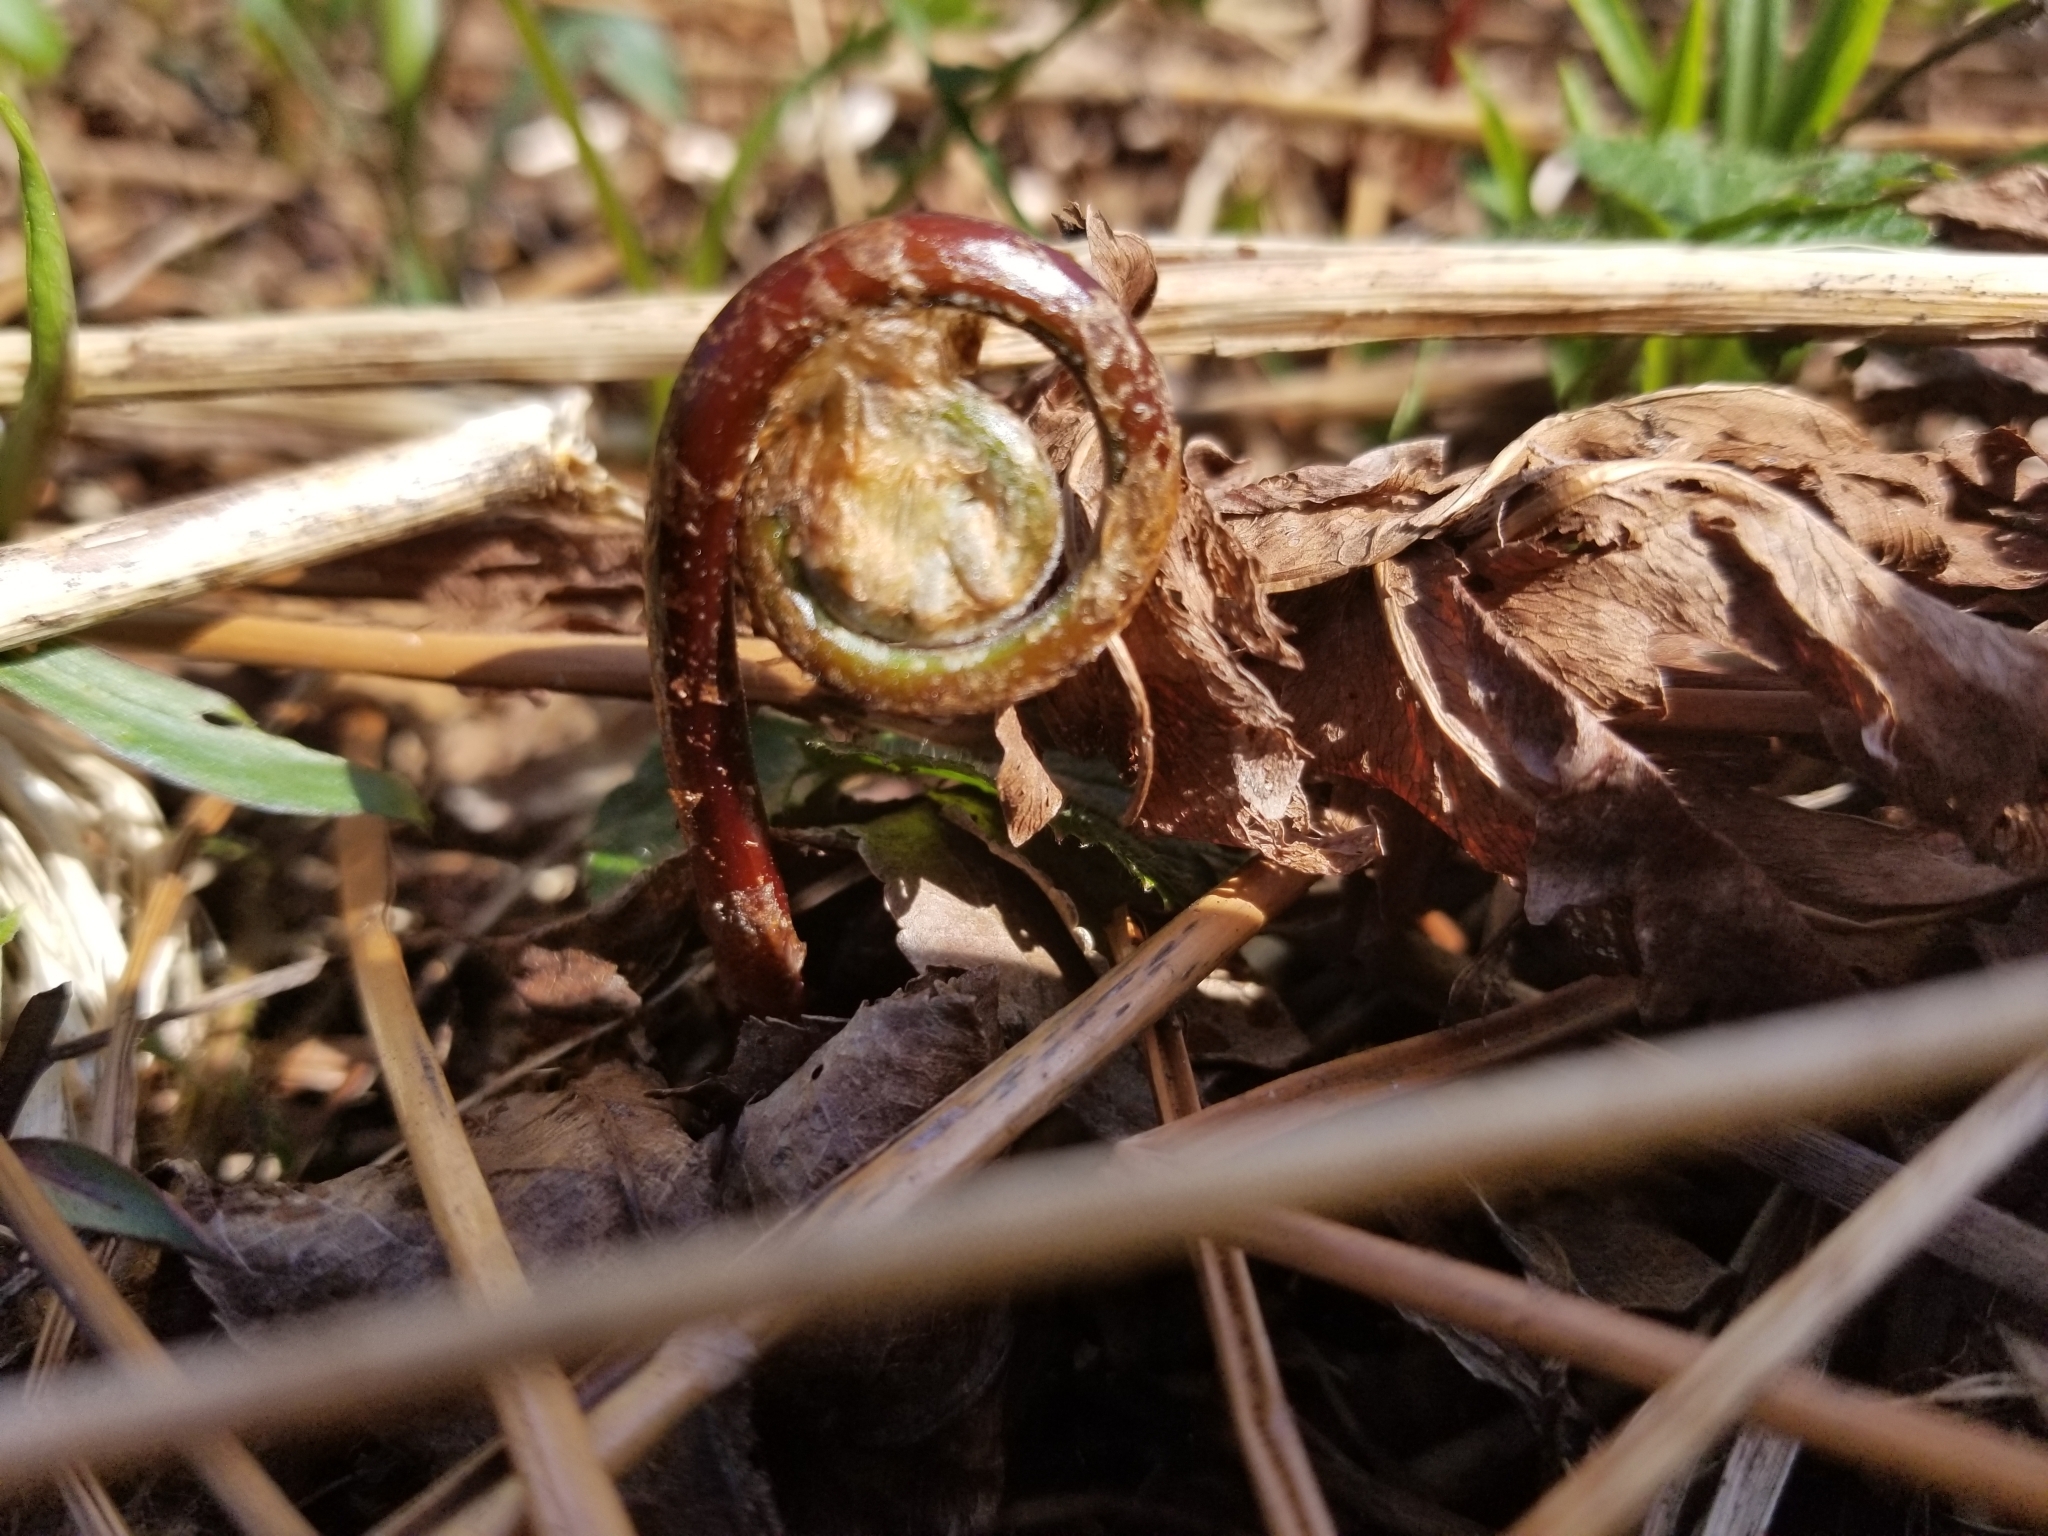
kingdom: Plantae
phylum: Tracheophyta
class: Polypodiopsida
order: Polypodiales
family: Onocleaceae
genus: Onoclea
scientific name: Onoclea sensibilis
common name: Sensitive fern
